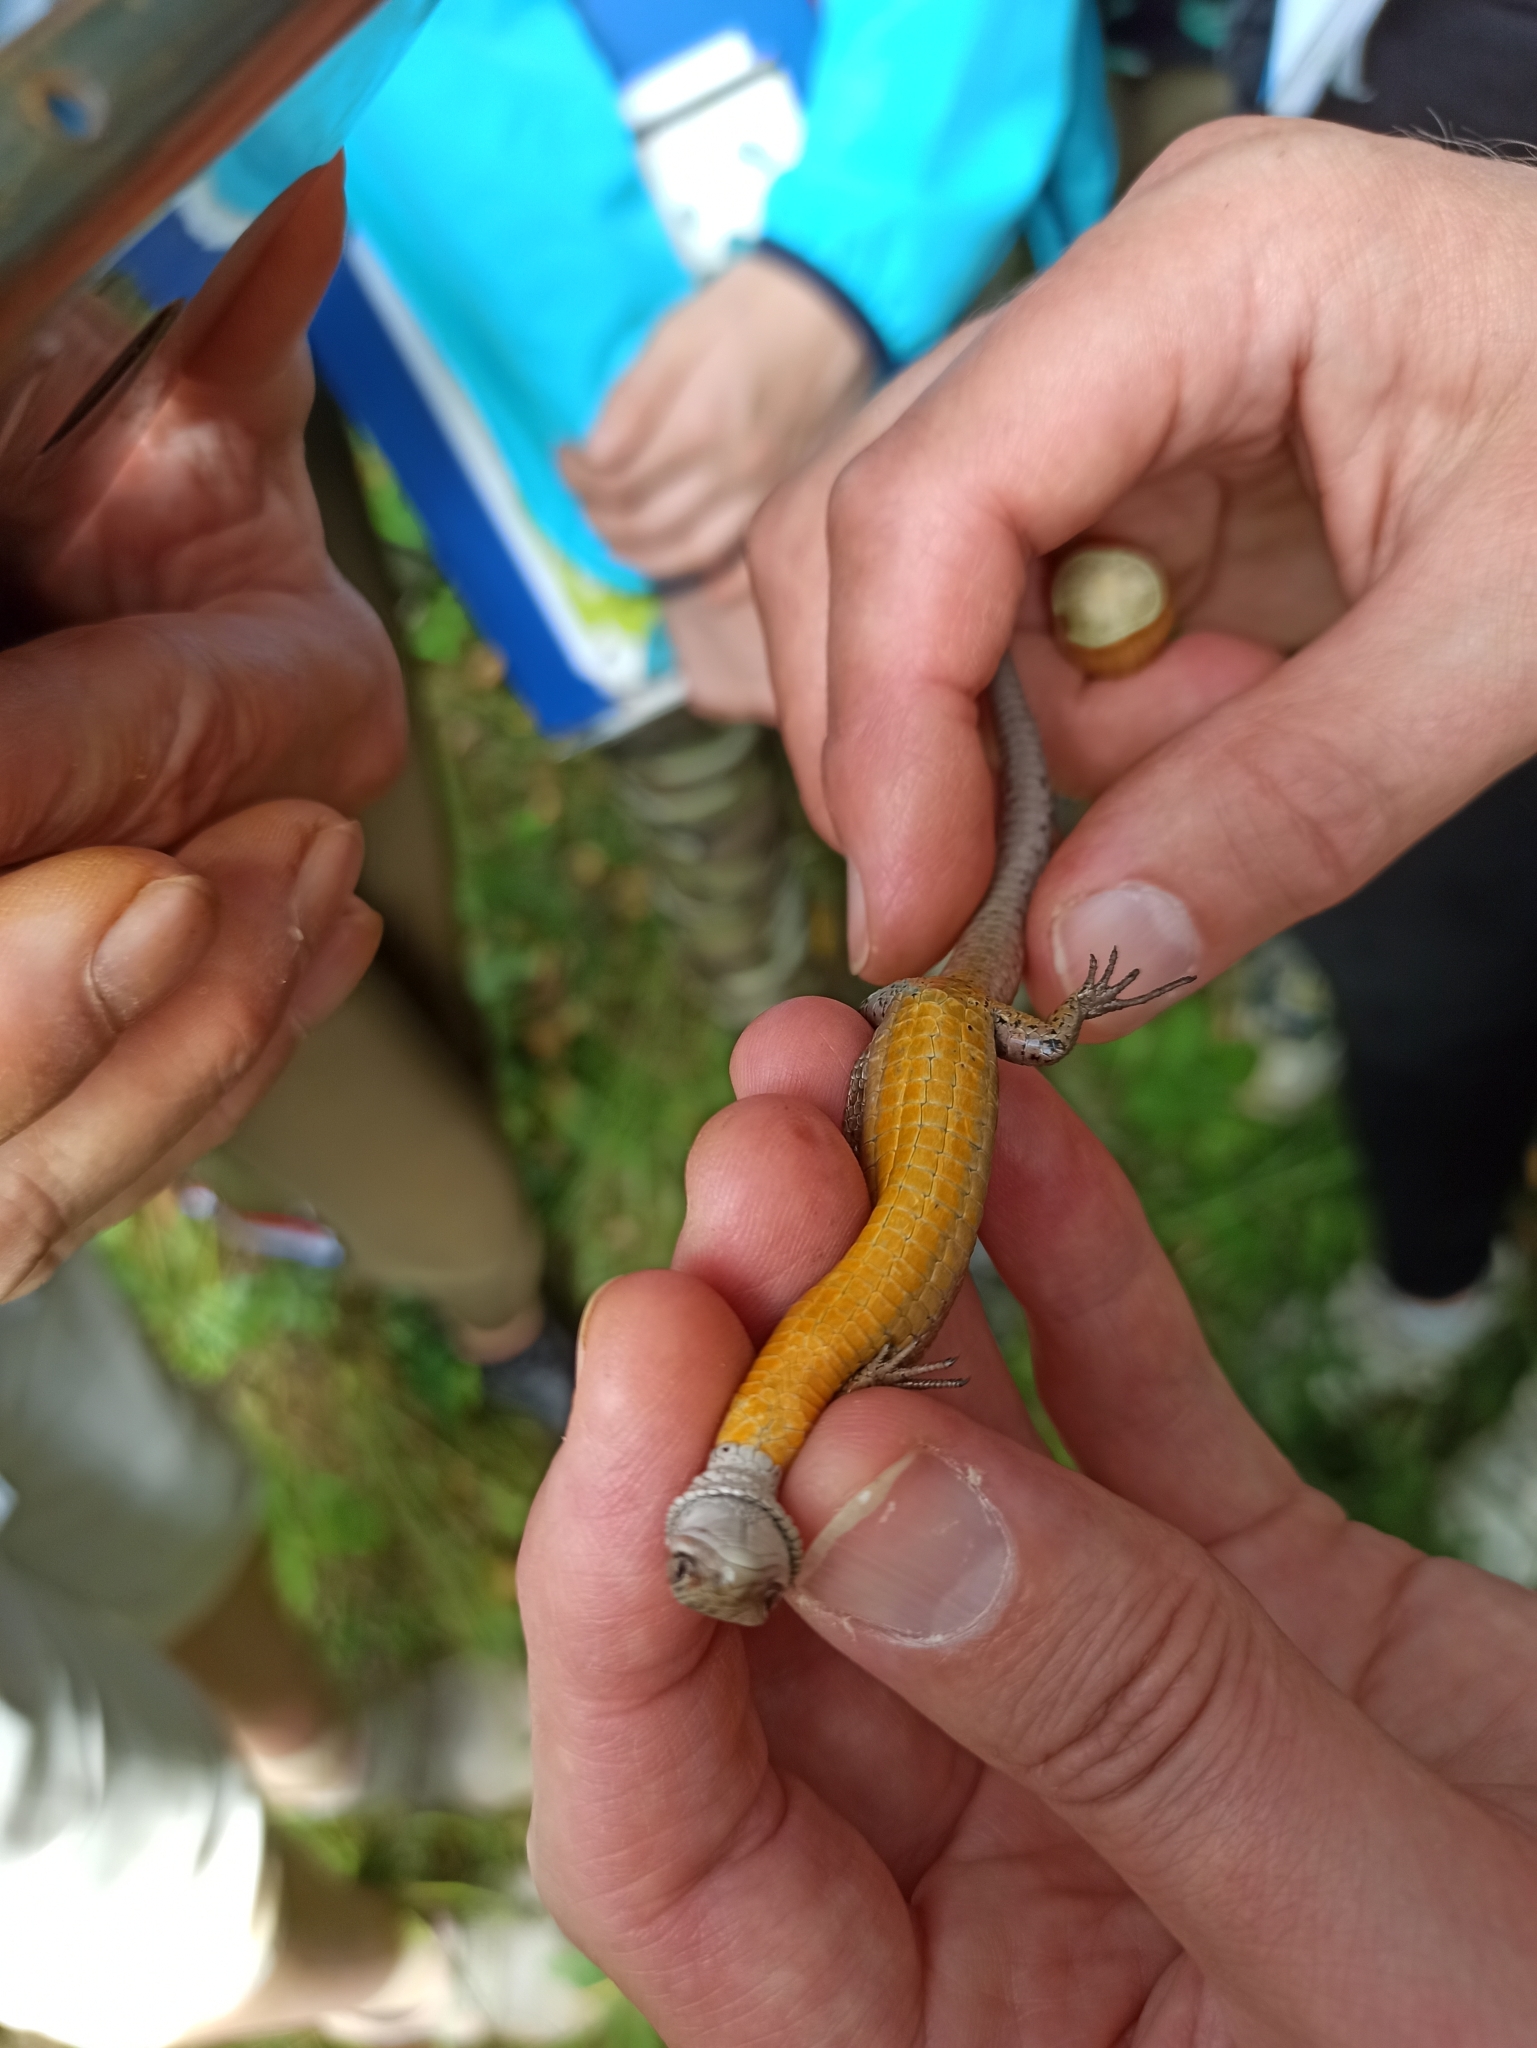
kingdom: Animalia
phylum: Chordata
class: Squamata
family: Lacertidae
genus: Zootoca
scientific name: Zootoca vivipara
